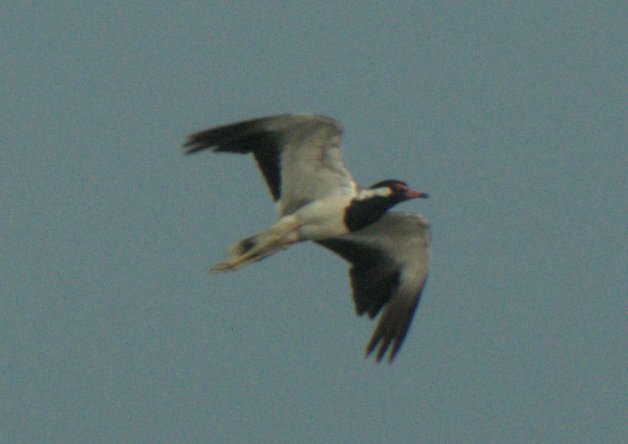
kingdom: Animalia
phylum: Chordata
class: Aves
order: Charadriiformes
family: Charadriidae
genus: Vanellus
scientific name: Vanellus indicus
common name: Red-wattled lapwing
